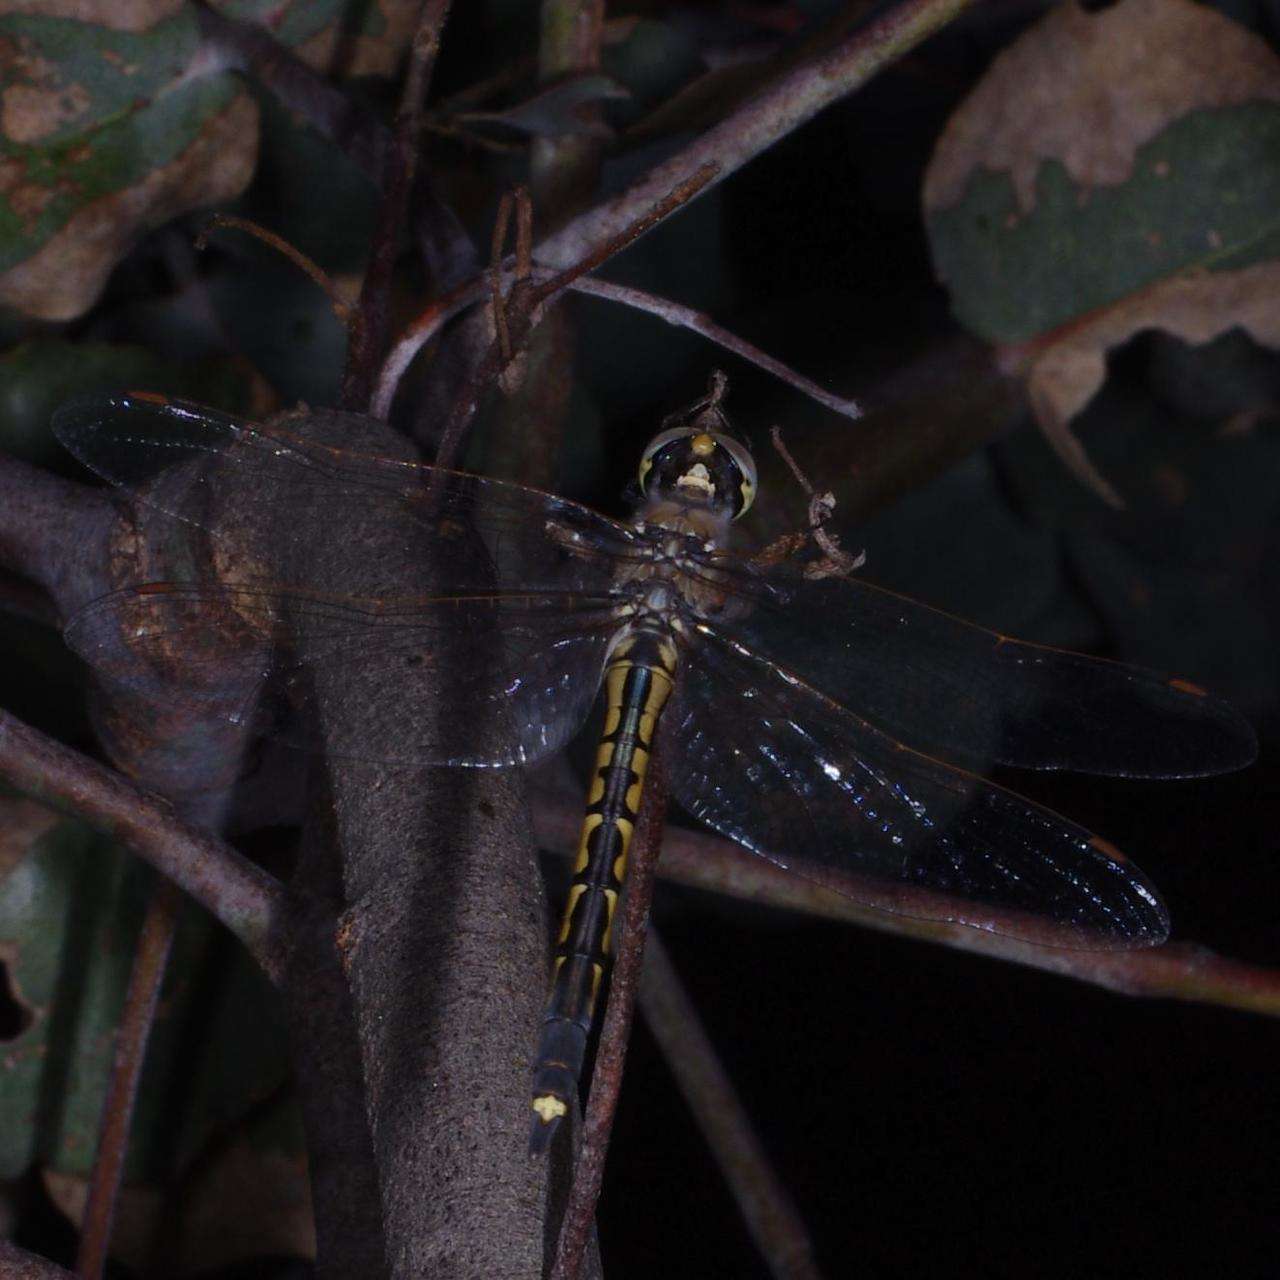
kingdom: Animalia
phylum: Arthropoda
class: Insecta
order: Odonata
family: Corduliidae
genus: Hemicordulia
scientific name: Hemicordulia tau
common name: Tau emerald
